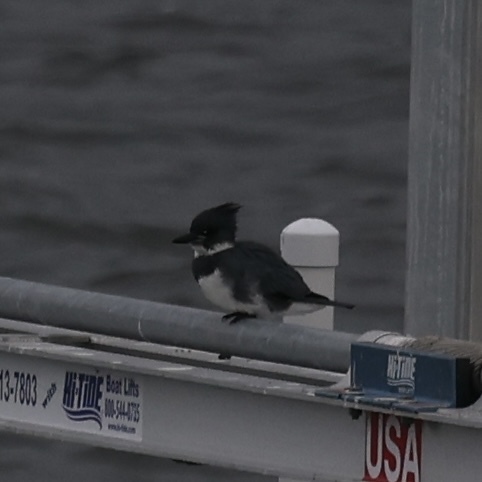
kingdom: Animalia
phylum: Chordata
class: Aves
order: Coraciiformes
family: Alcedinidae
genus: Megaceryle
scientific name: Megaceryle alcyon
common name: Belted kingfisher
